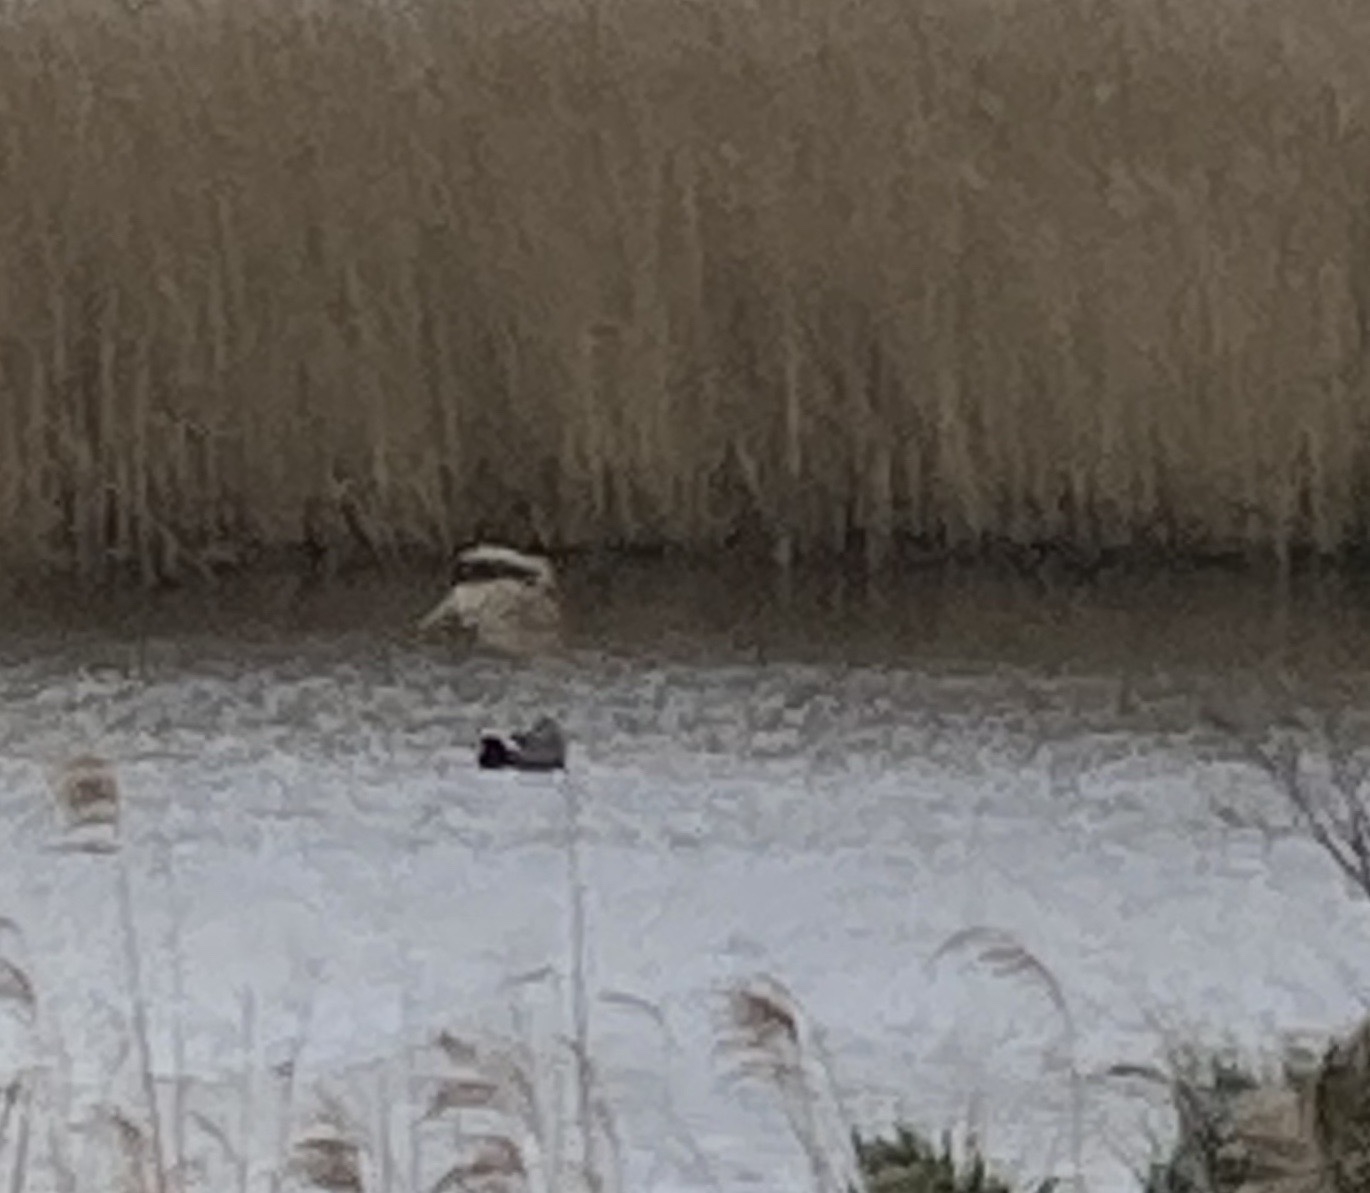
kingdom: Animalia
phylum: Chordata
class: Aves
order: Anseriformes
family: Anatidae
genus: Mareca
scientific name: Mareca strepera
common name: Gadwall
